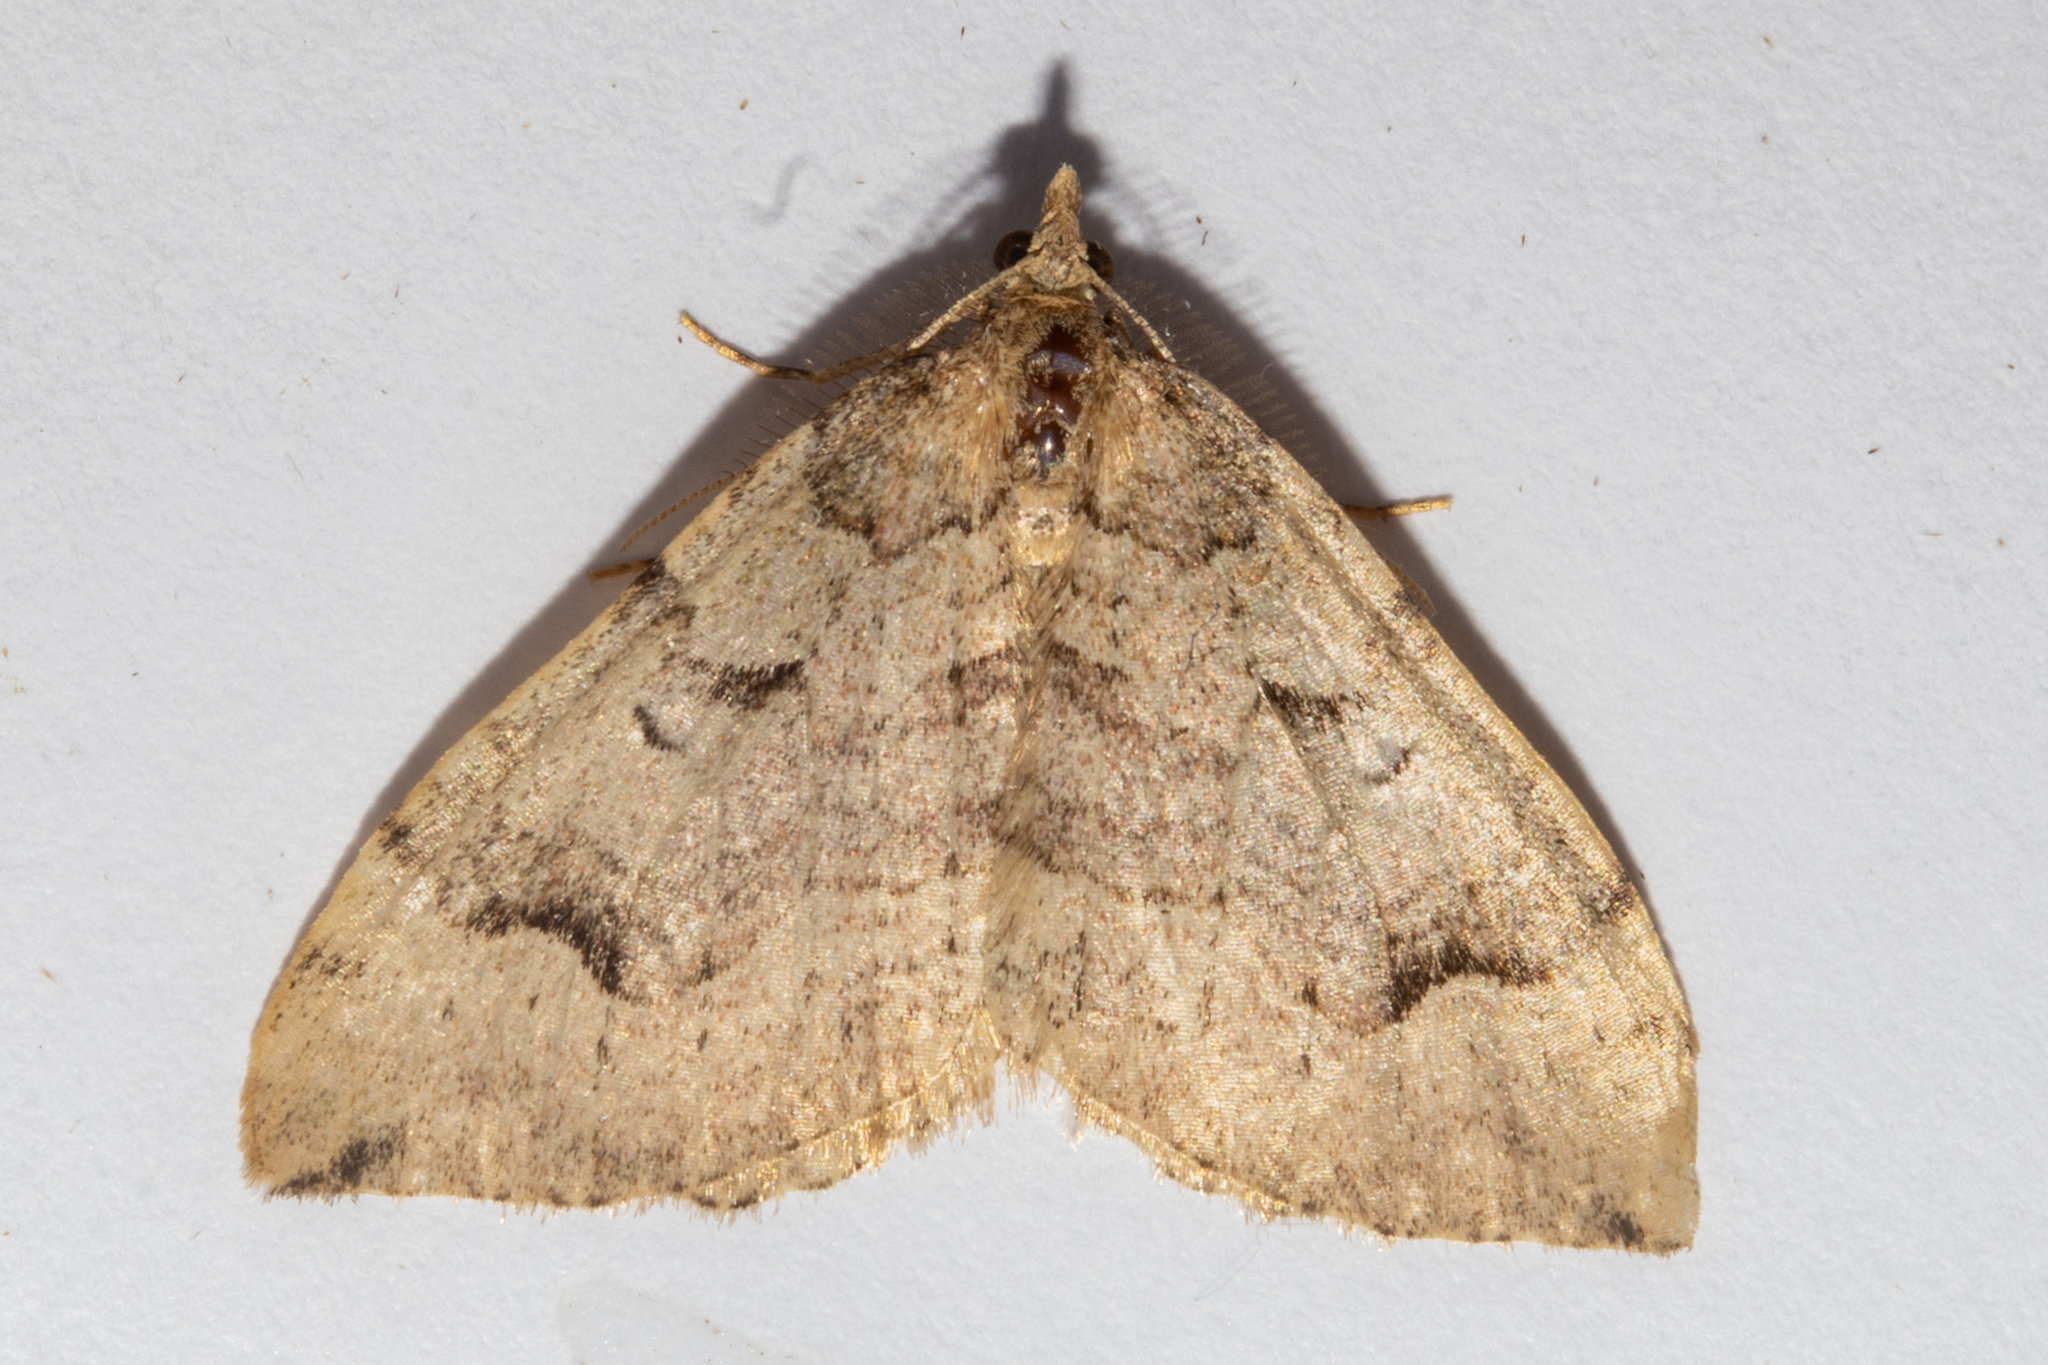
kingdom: Animalia
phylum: Arthropoda
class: Insecta
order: Lepidoptera
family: Geometridae
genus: Epyaxa
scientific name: Epyaxa rosearia
